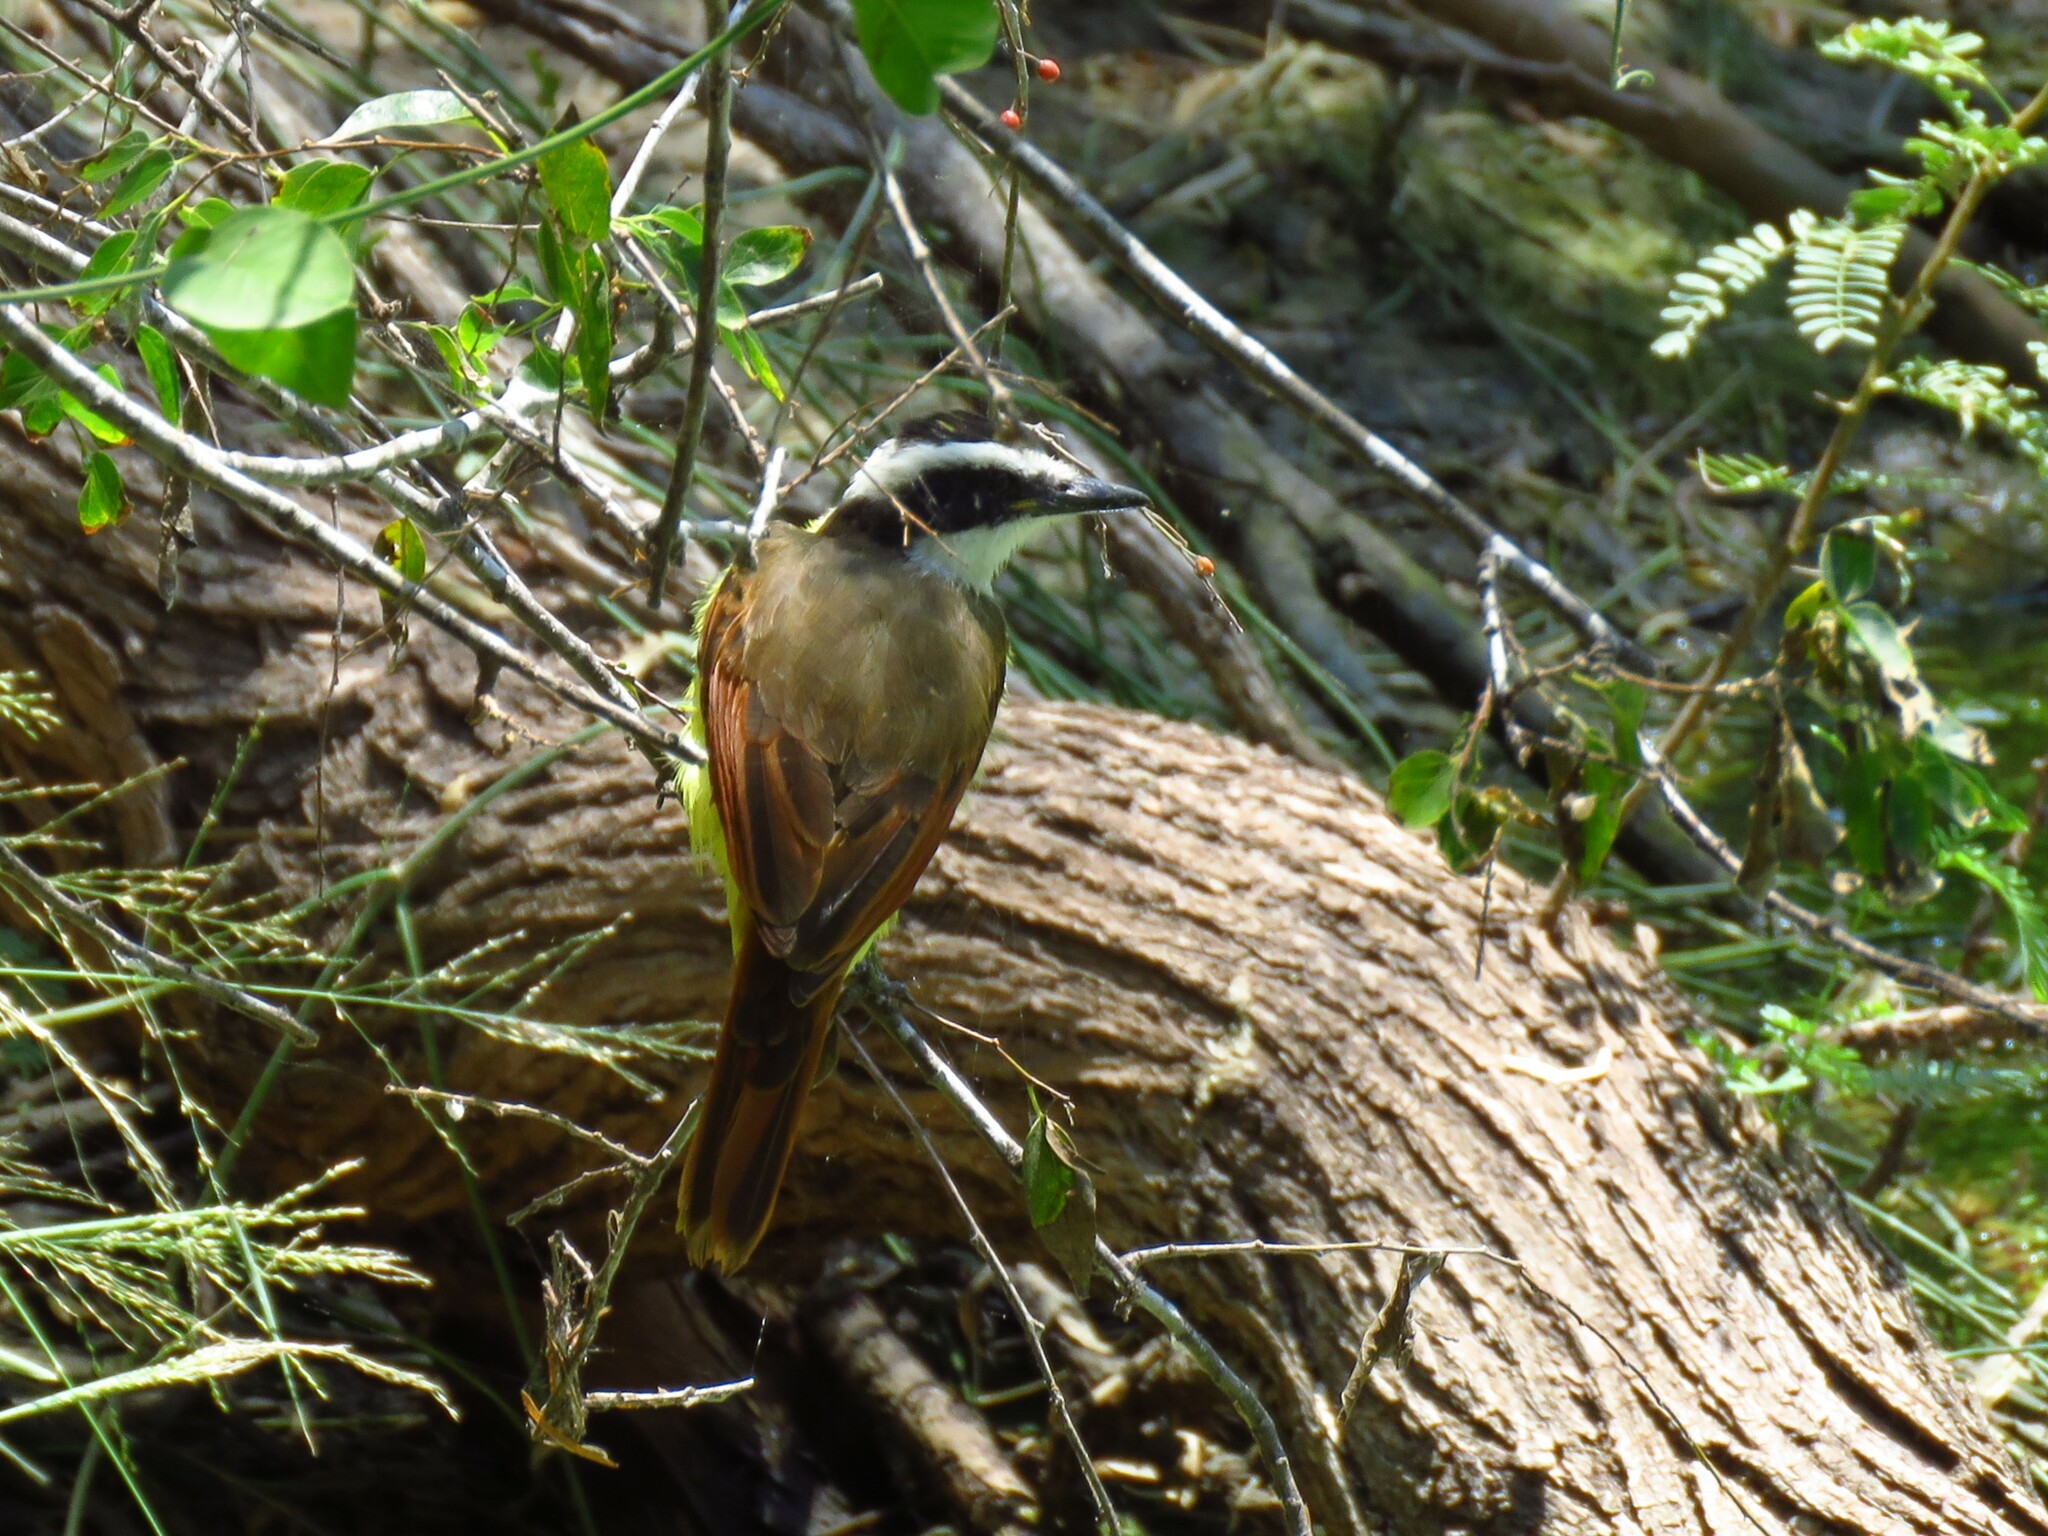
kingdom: Animalia
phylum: Chordata
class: Aves
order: Passeriformes
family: Tyrannidae
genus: Pitangus
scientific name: Pitangus sulphuratus
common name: Great kiskadee
